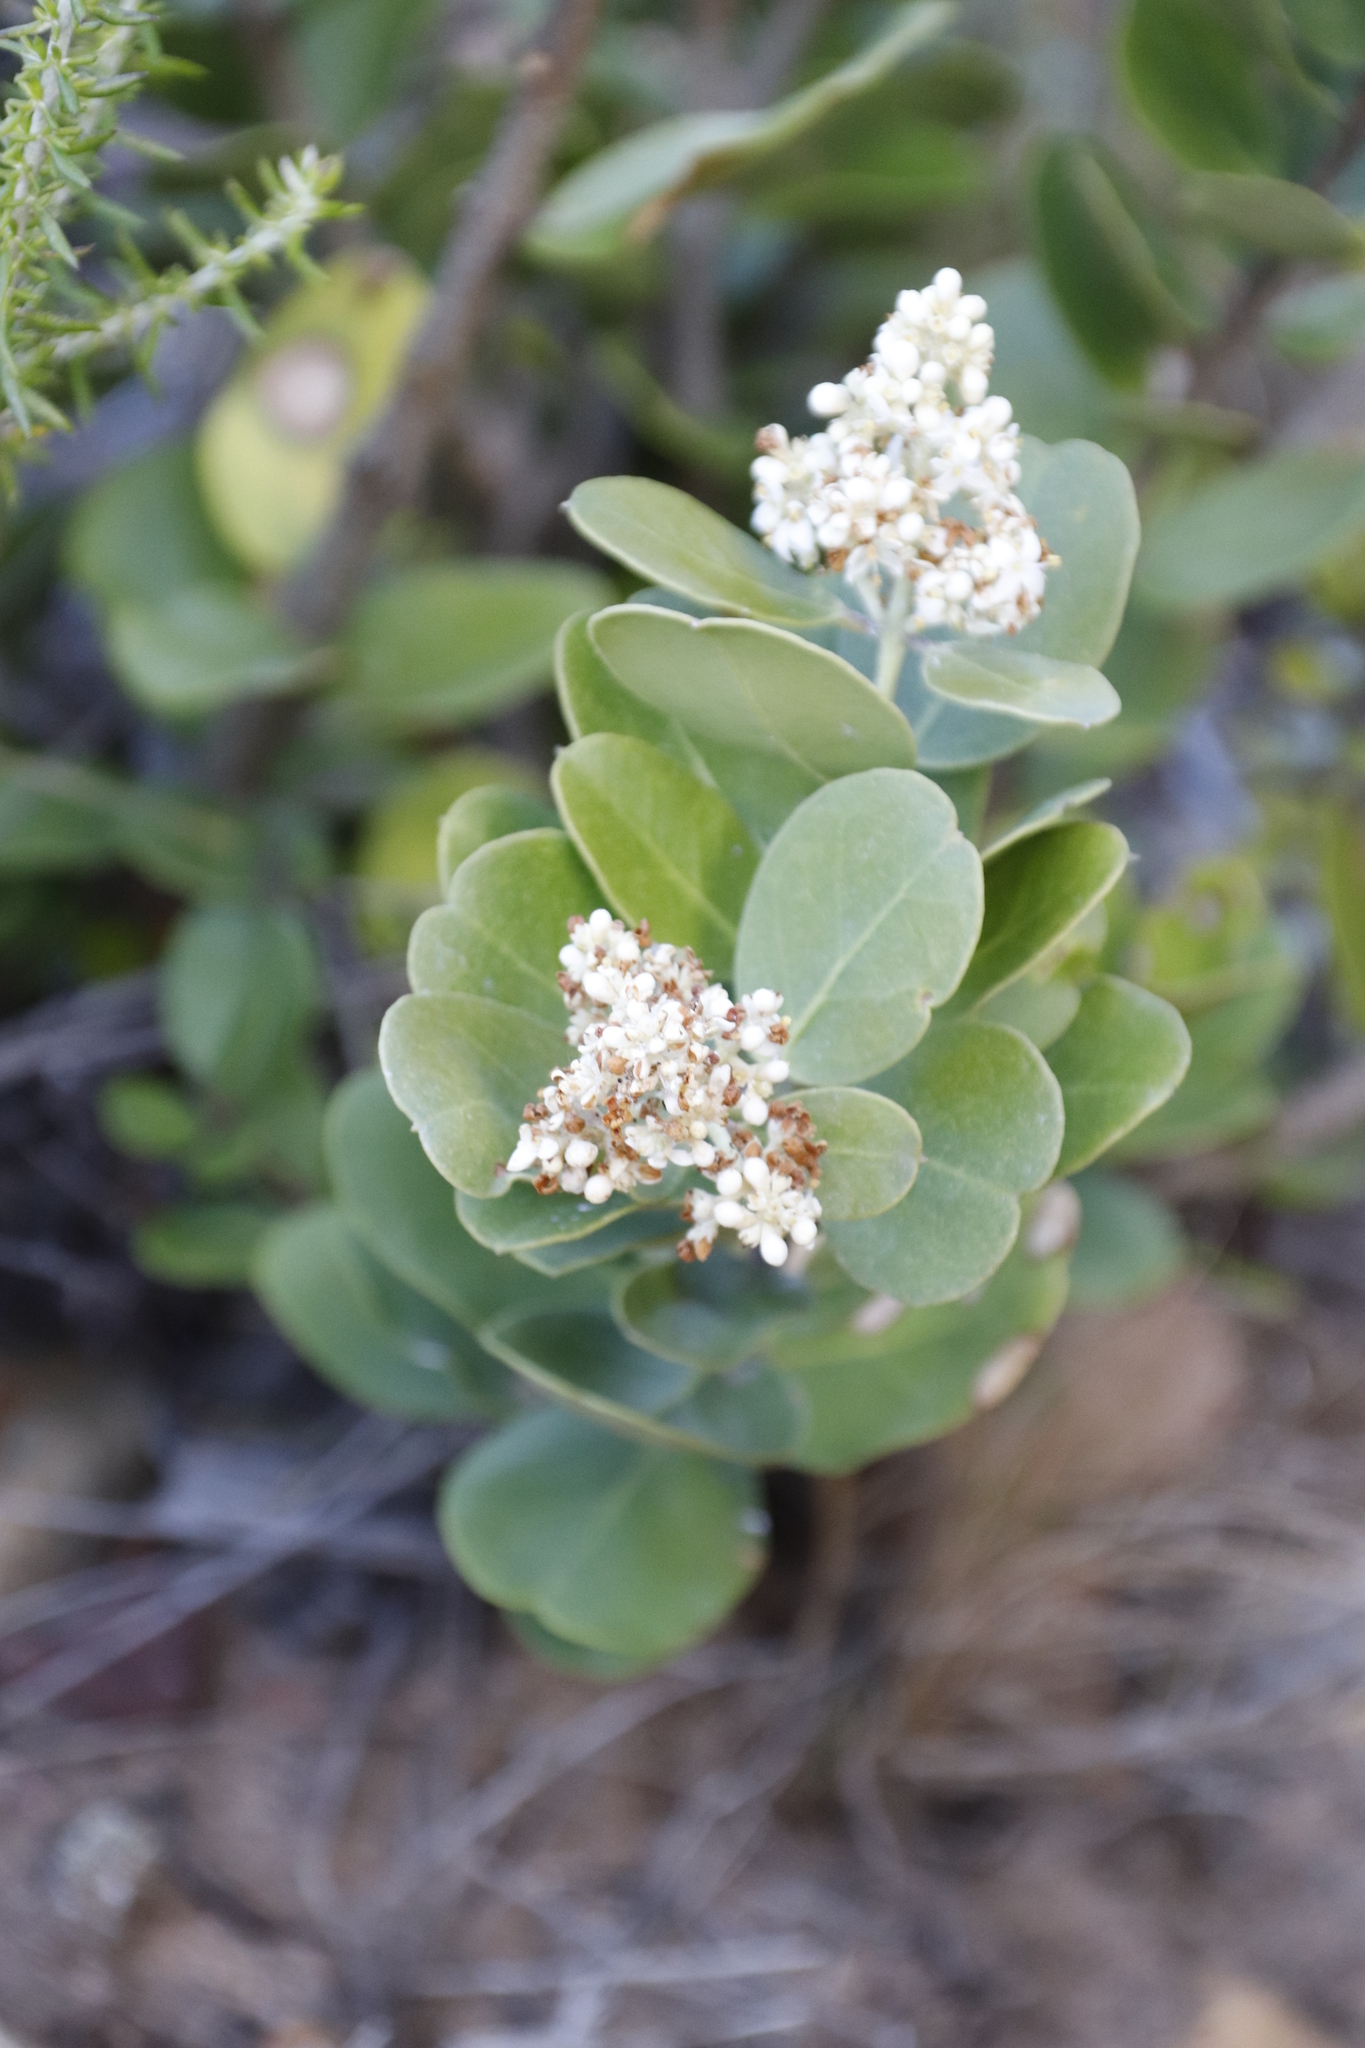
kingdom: Plantae
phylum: Tracheophyta
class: Magnoliopsida
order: Lamiales
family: Oleaceae
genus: Olea
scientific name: Olea capensis
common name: Black ironwood
